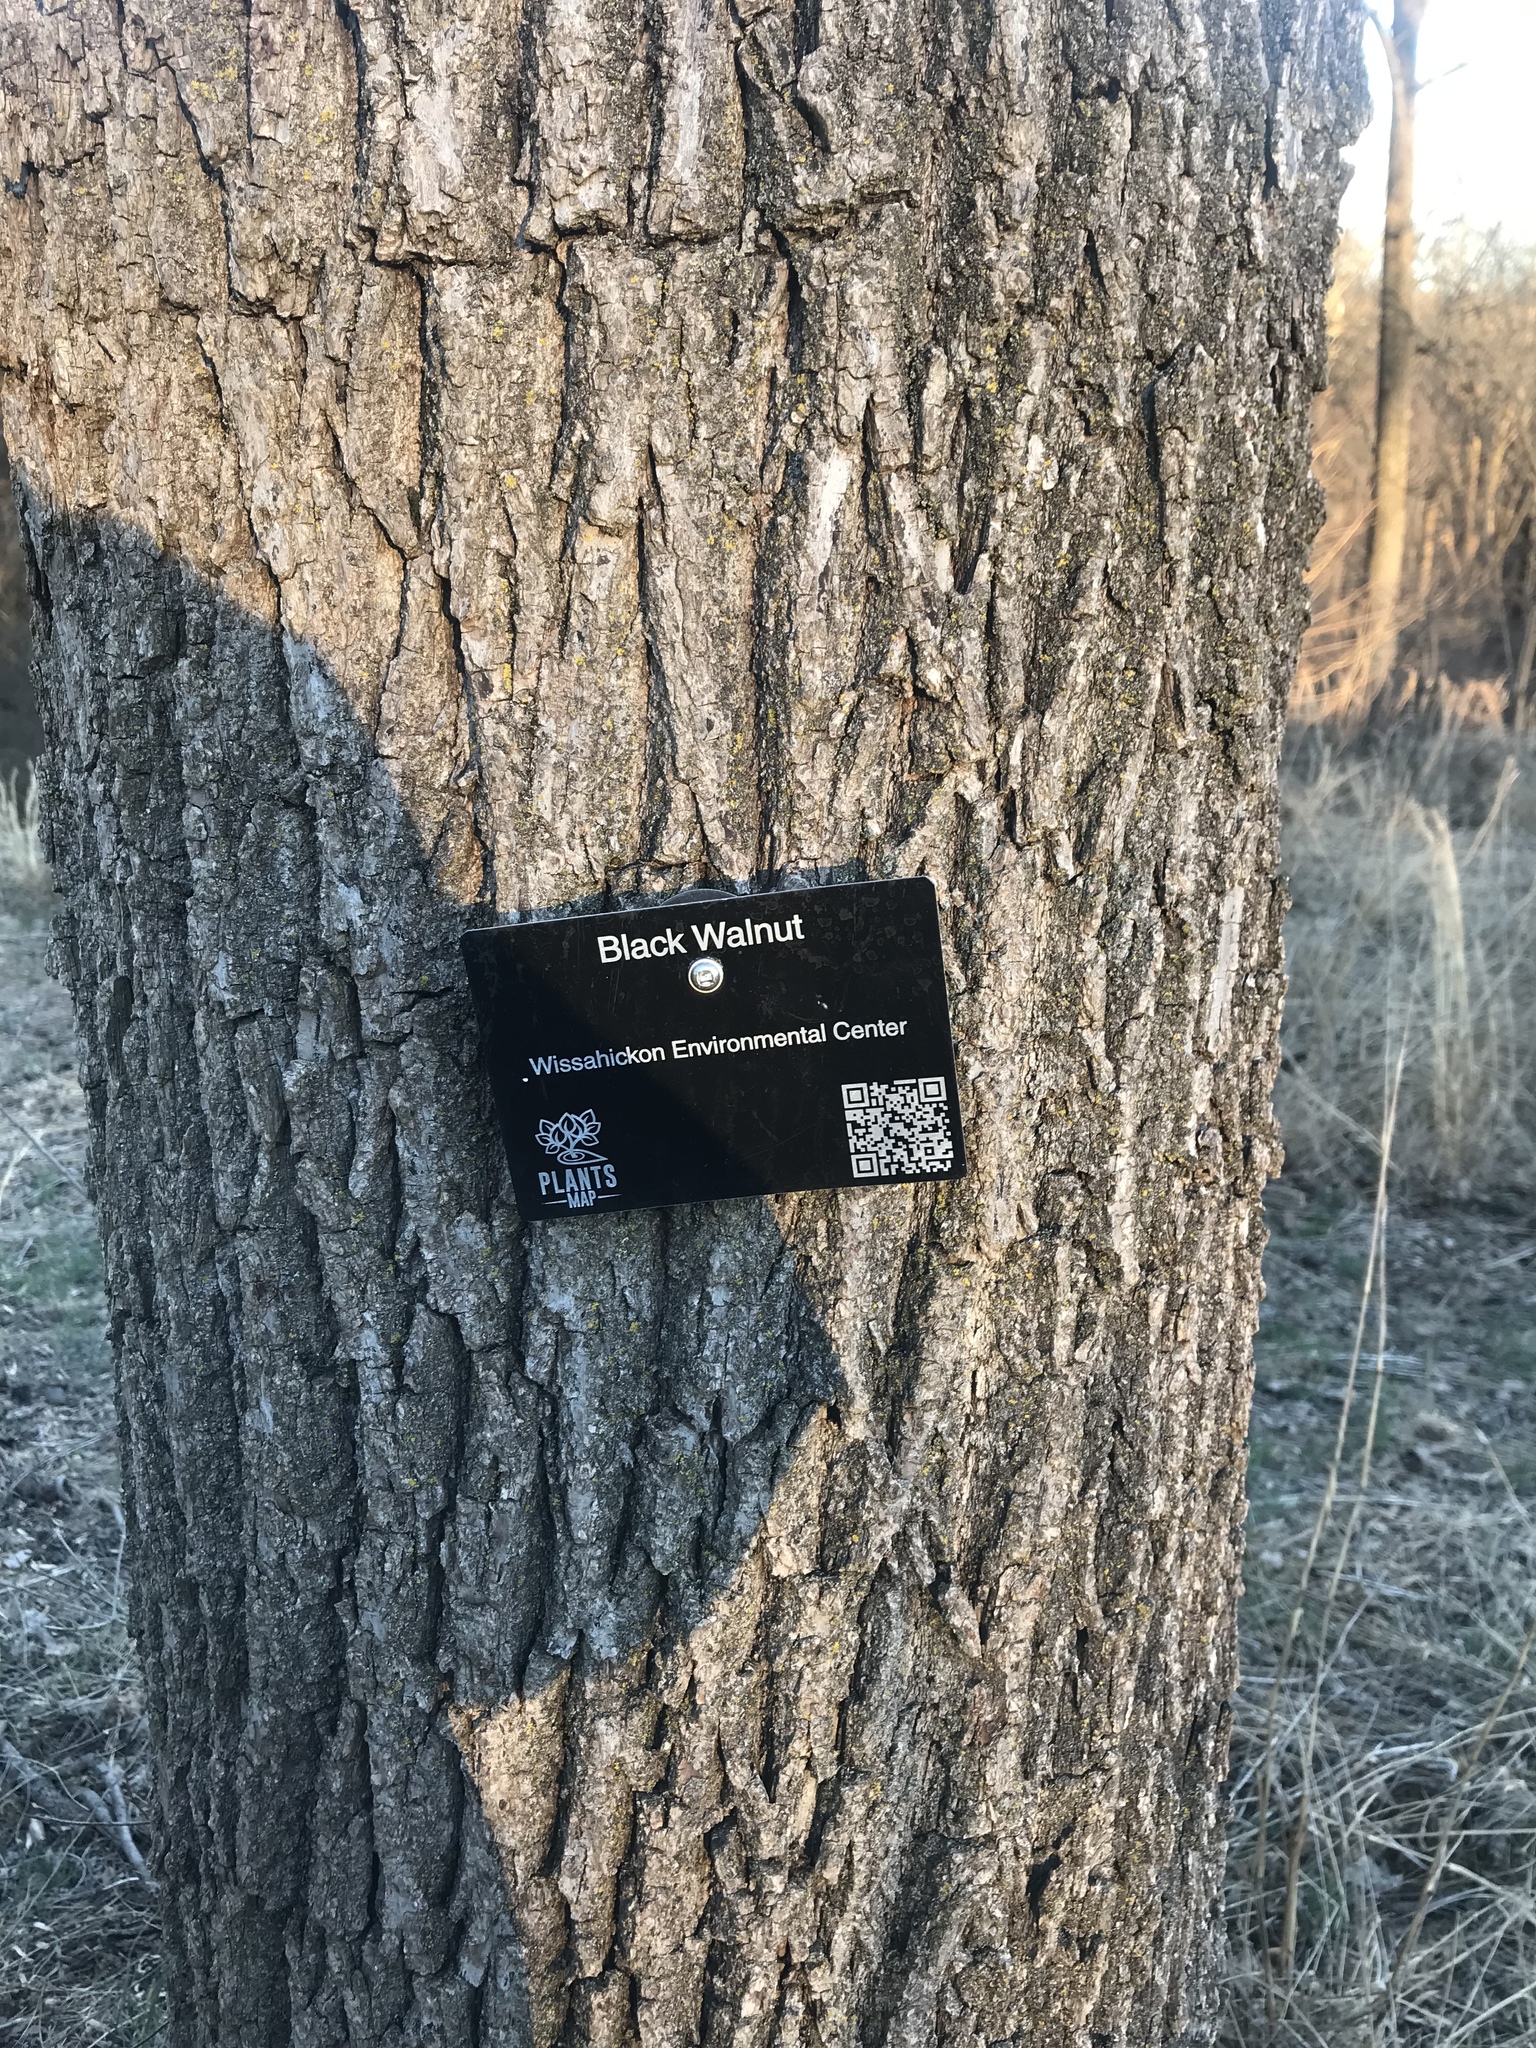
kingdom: Plantae
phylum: Tracheophyta
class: Magnoliopsida
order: Fagales
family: Juglandaceae
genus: Juglans
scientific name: Juglans nigra
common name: Black walnut
